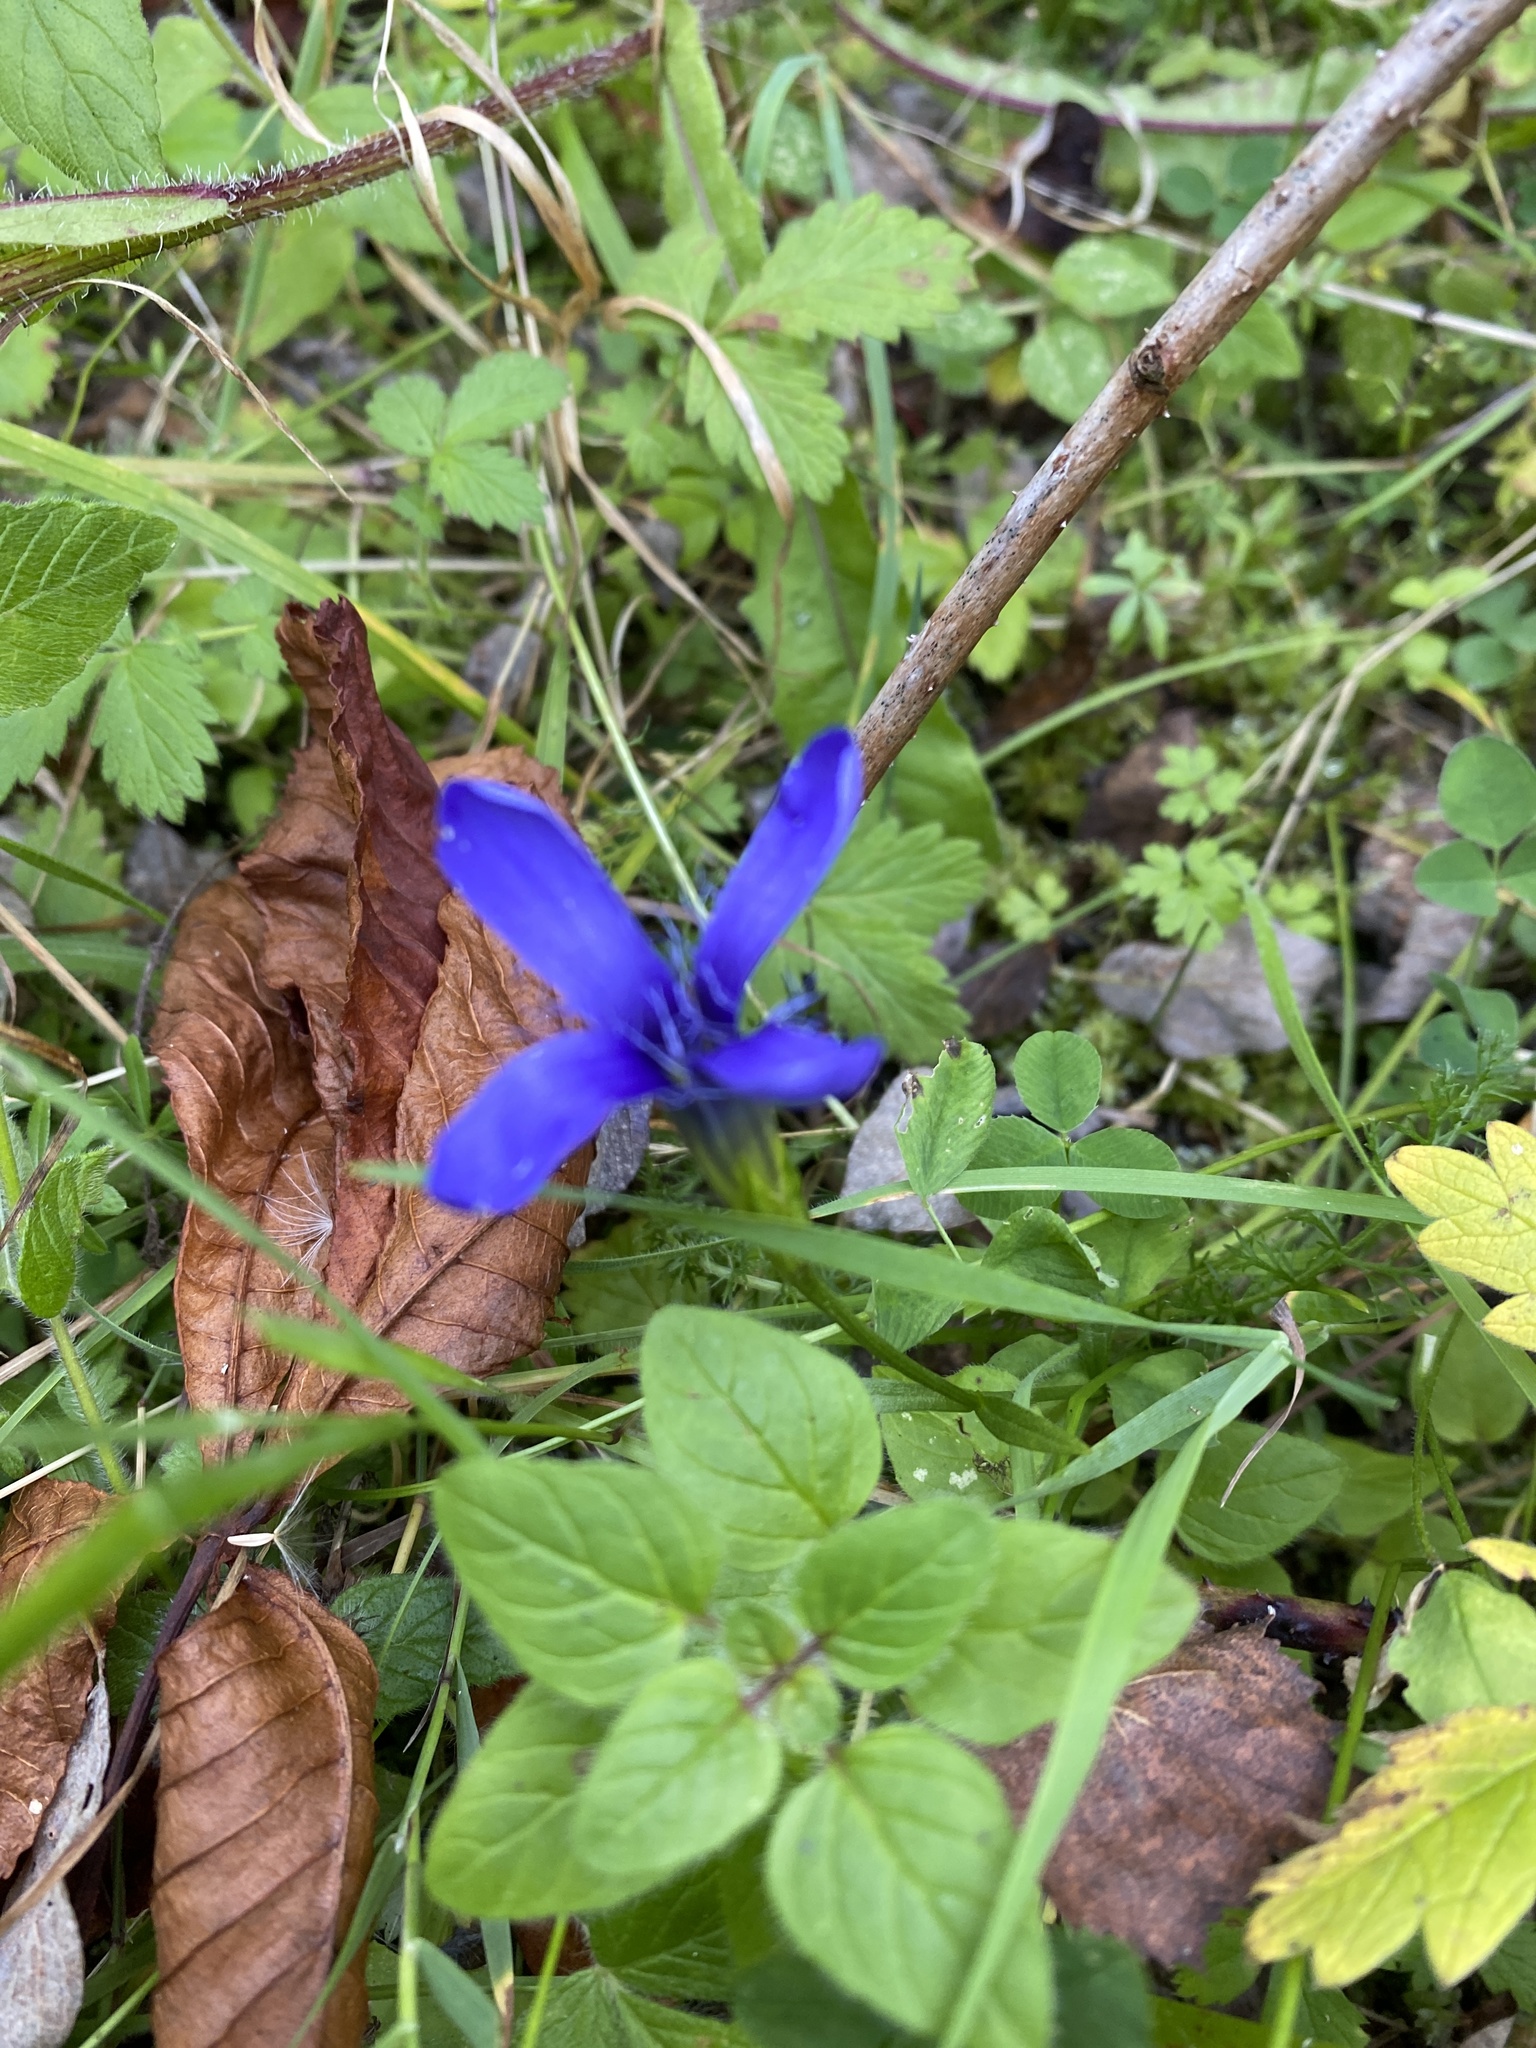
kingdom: Plantae
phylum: Tracheophyta
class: Magnoliopsida
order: Gentianales
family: Gentianaceae
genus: Gentianopsis
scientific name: Gentianopsis ciliata
